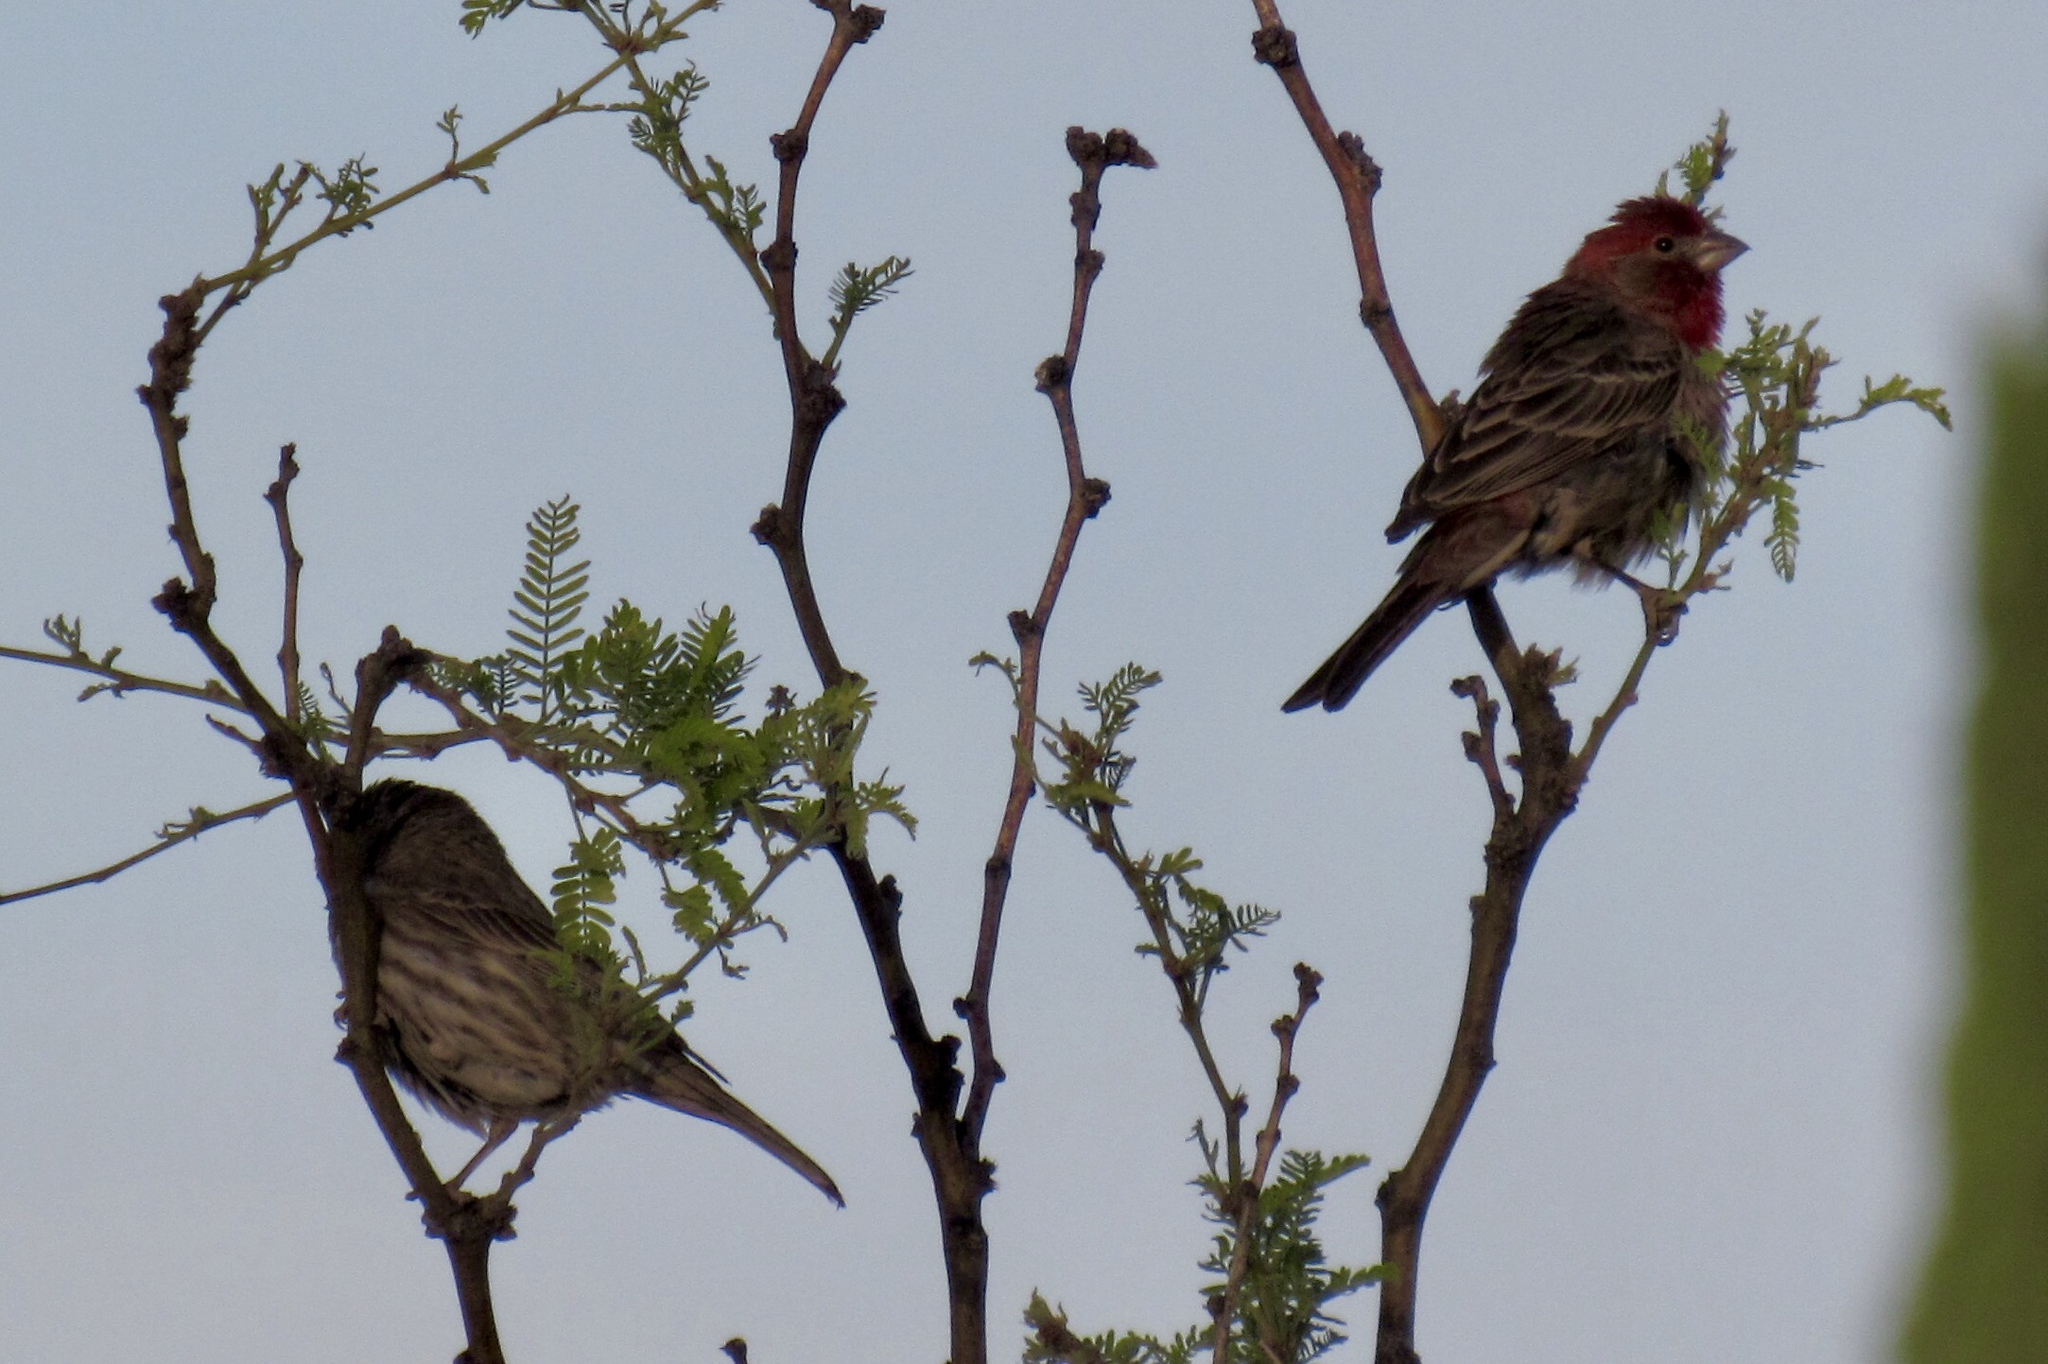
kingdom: Animalia
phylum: Chordata
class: Aves
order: Passeriformes
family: Fringillidae
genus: Haemorhous
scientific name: Haemorhous mexicanus
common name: House finch
